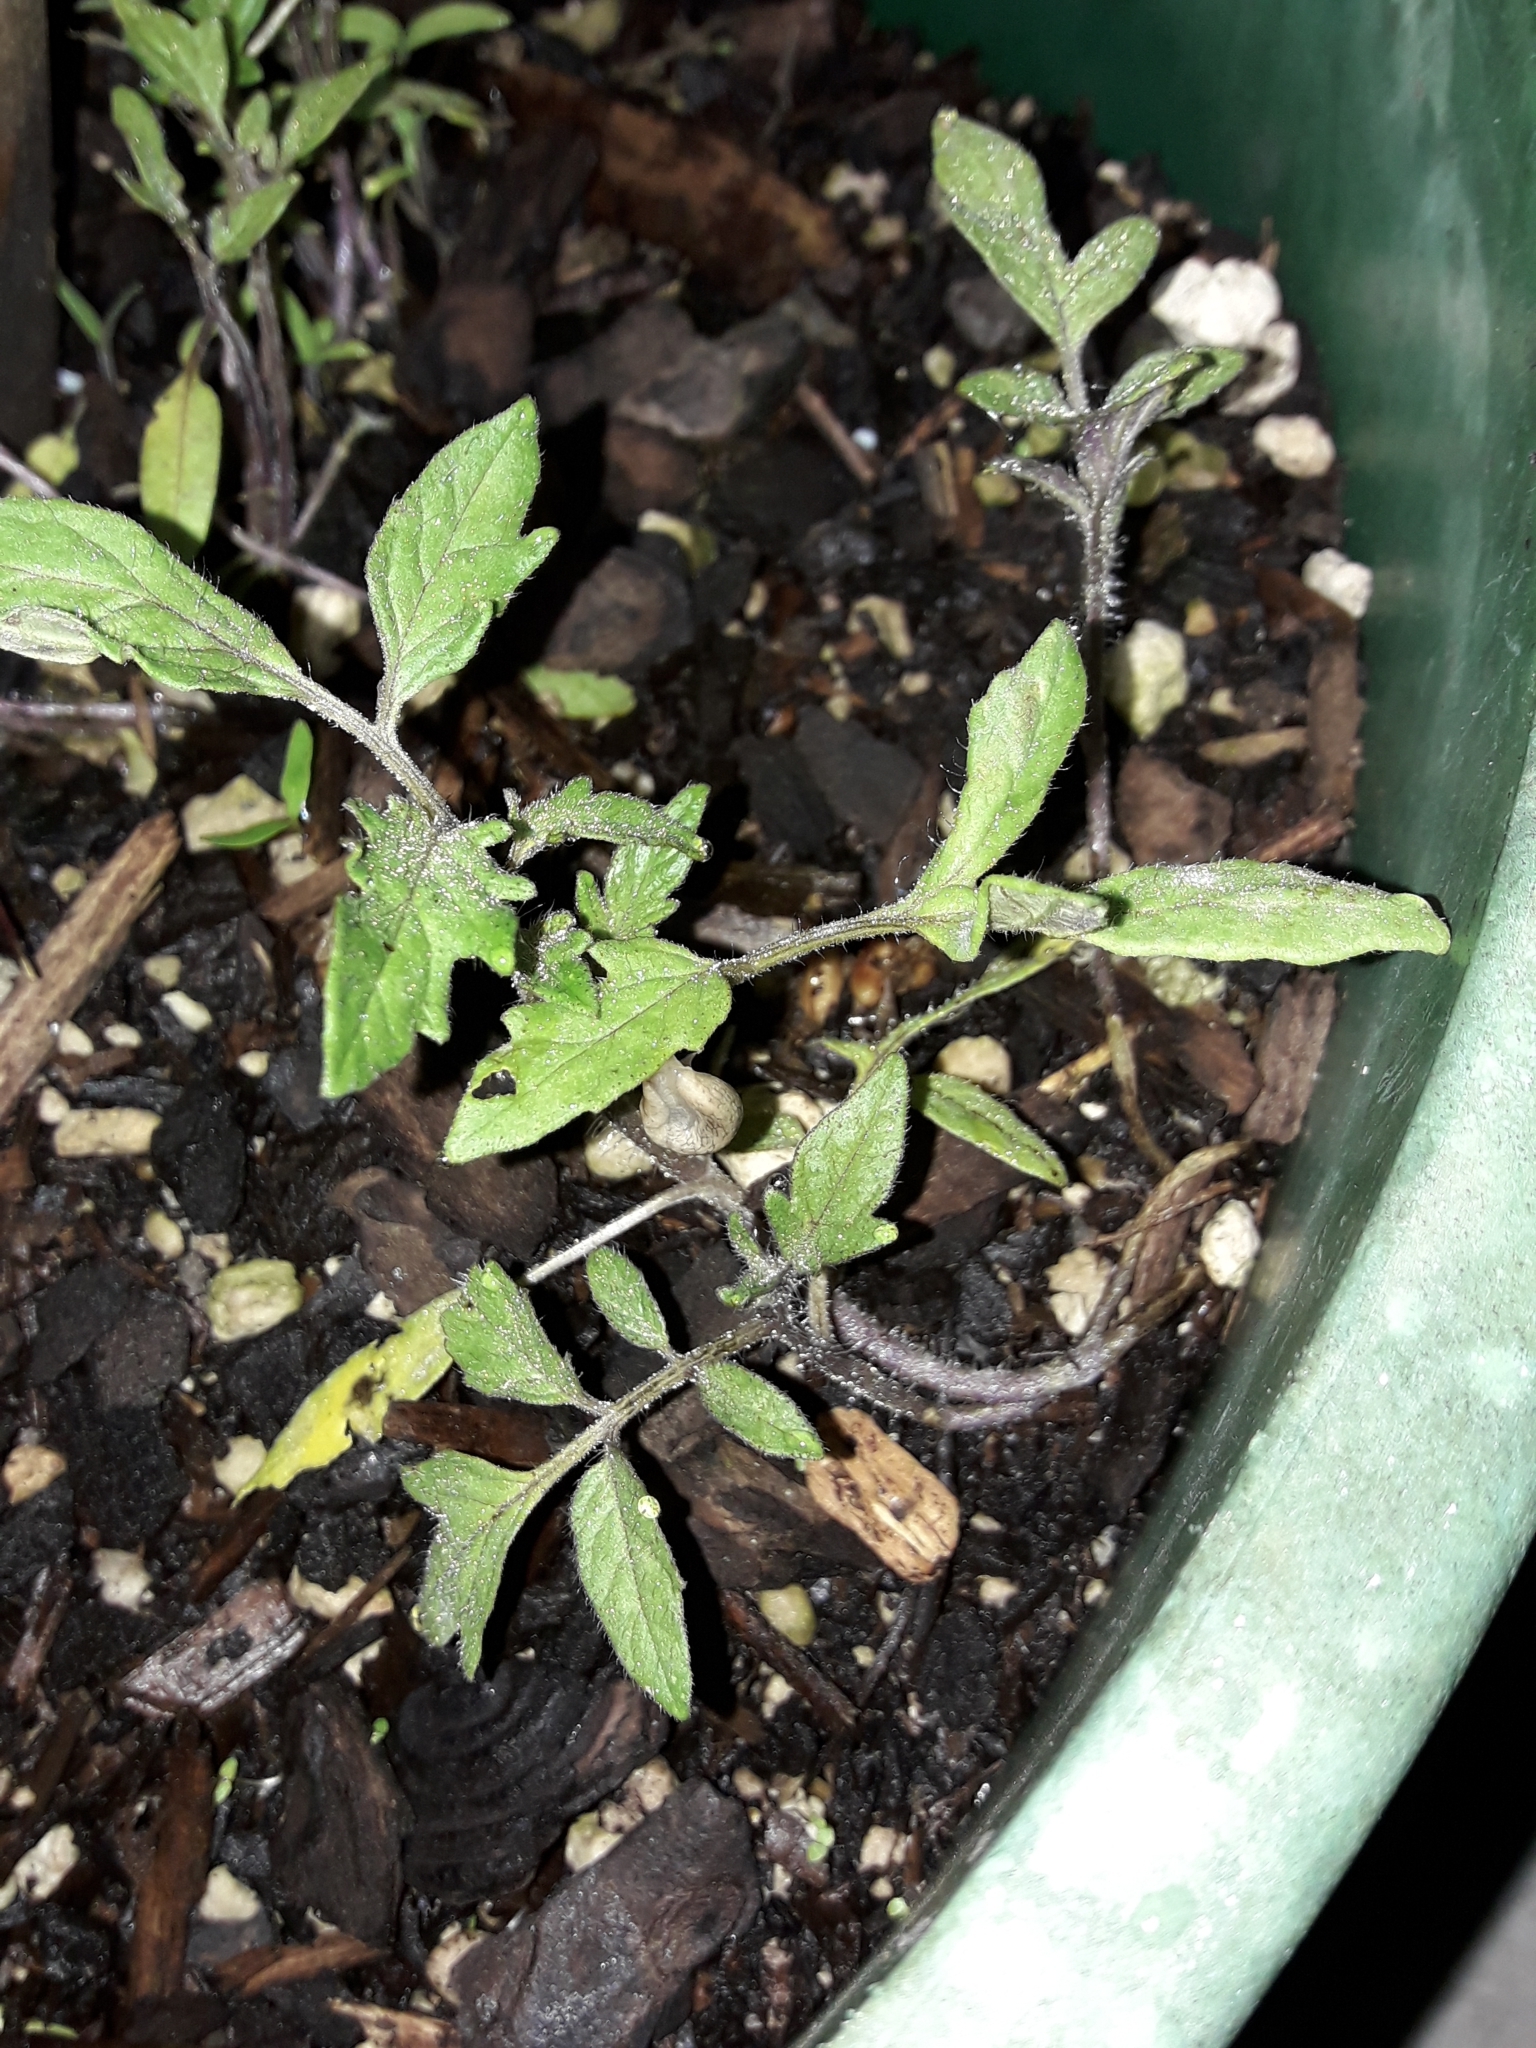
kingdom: Plantae
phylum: Tracheophyta
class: Magnoliopsida
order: Solanales
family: Solanaceae
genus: Solanum
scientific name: Solanum lycopersicum
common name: Garden tomato
